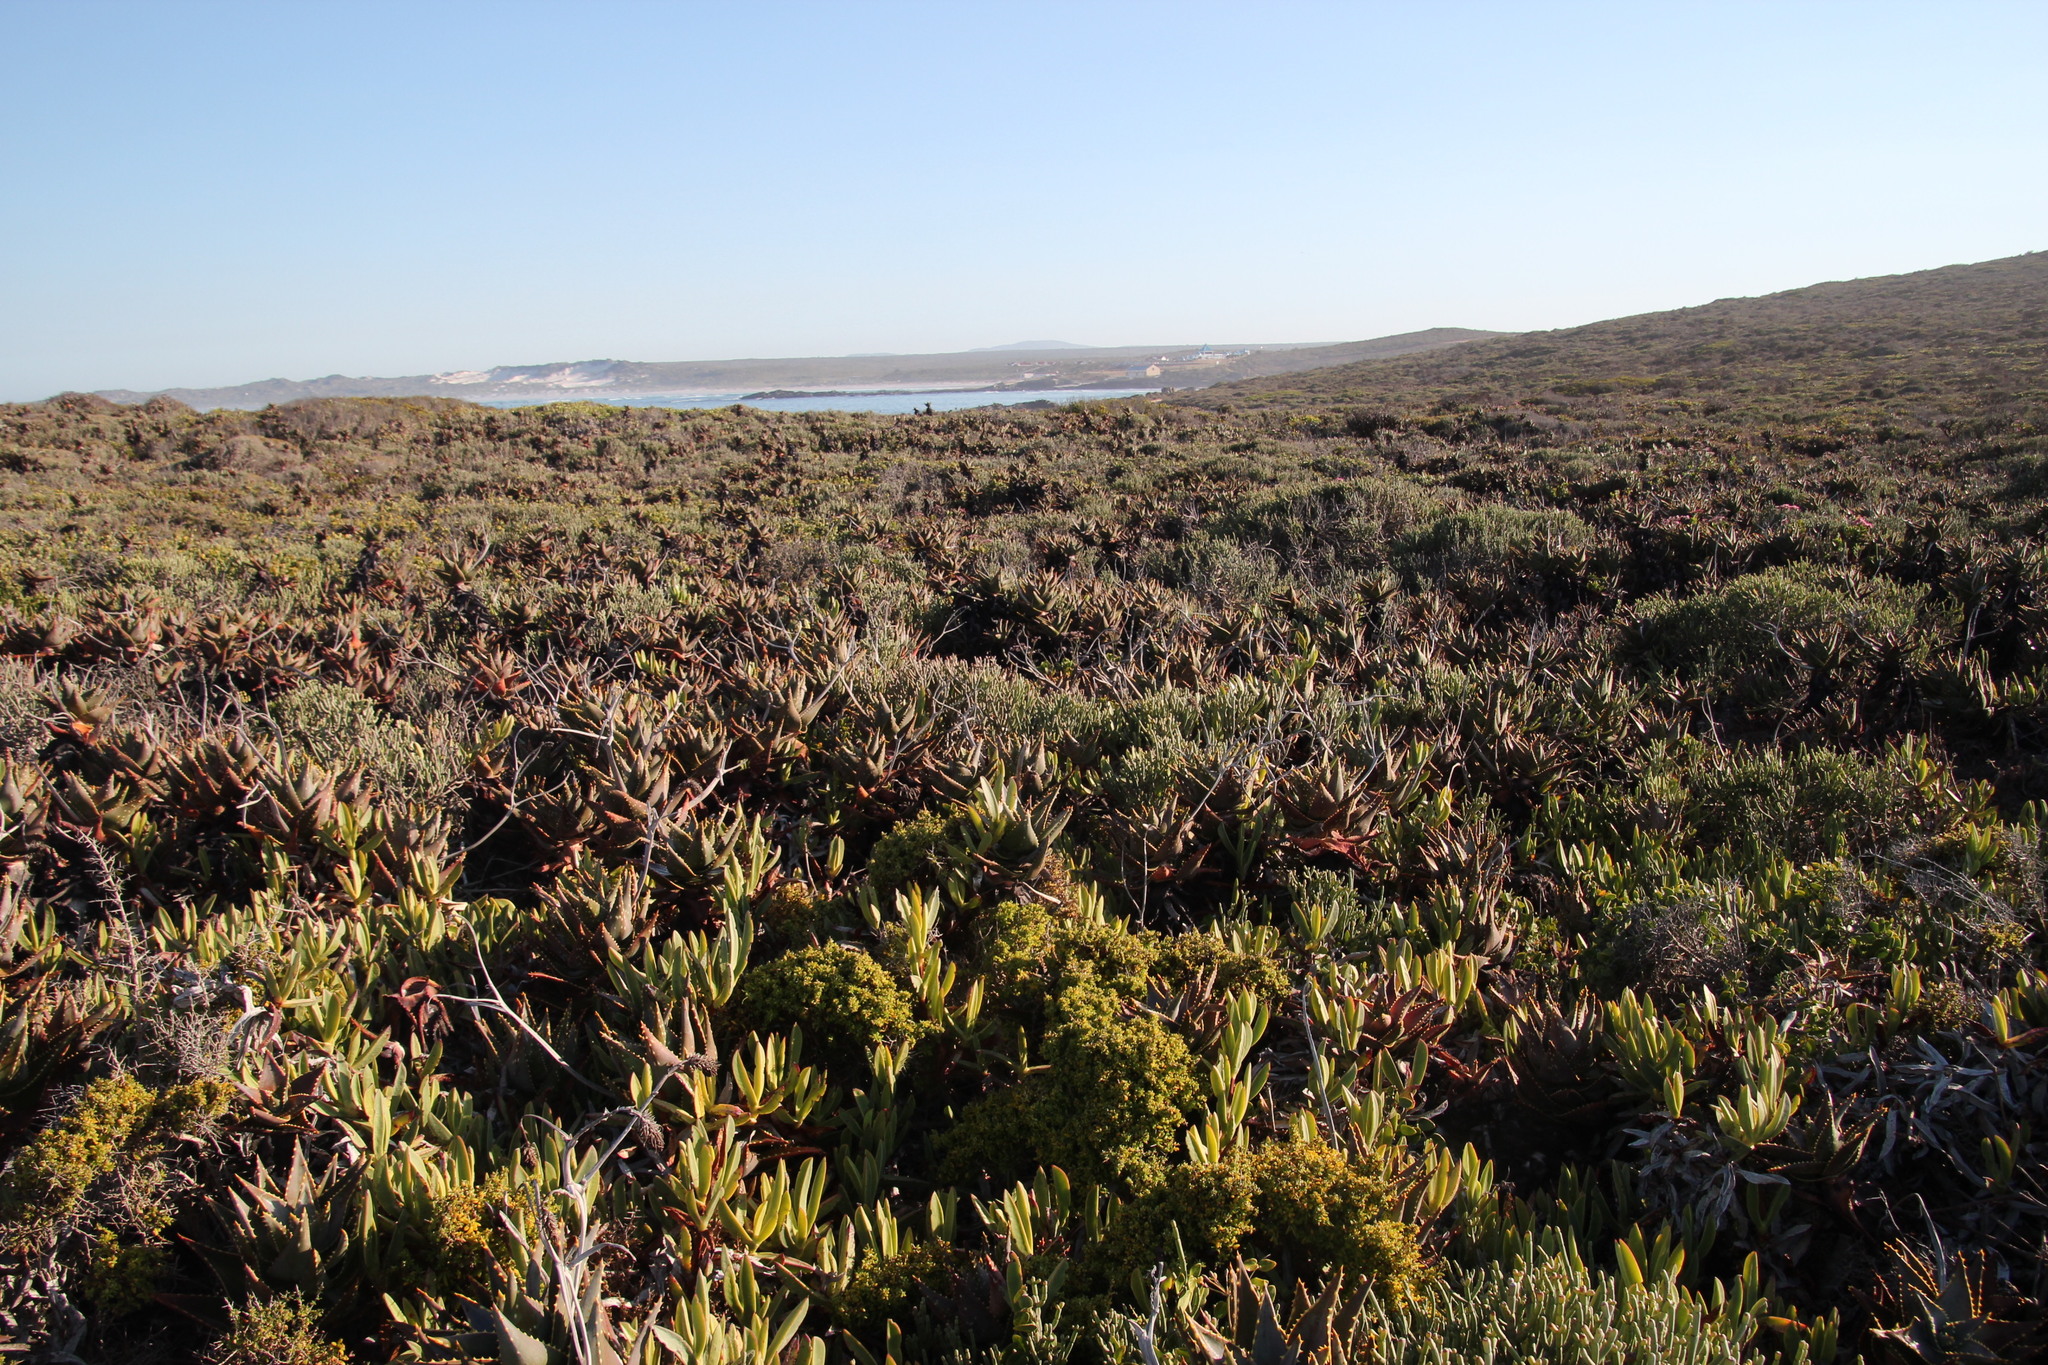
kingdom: Plantae
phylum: Tracheophyta
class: Liliopsida
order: Asparagales
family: Asphodelaceae
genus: Aloe
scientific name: Aloe distans
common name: Short-leaved aloe
